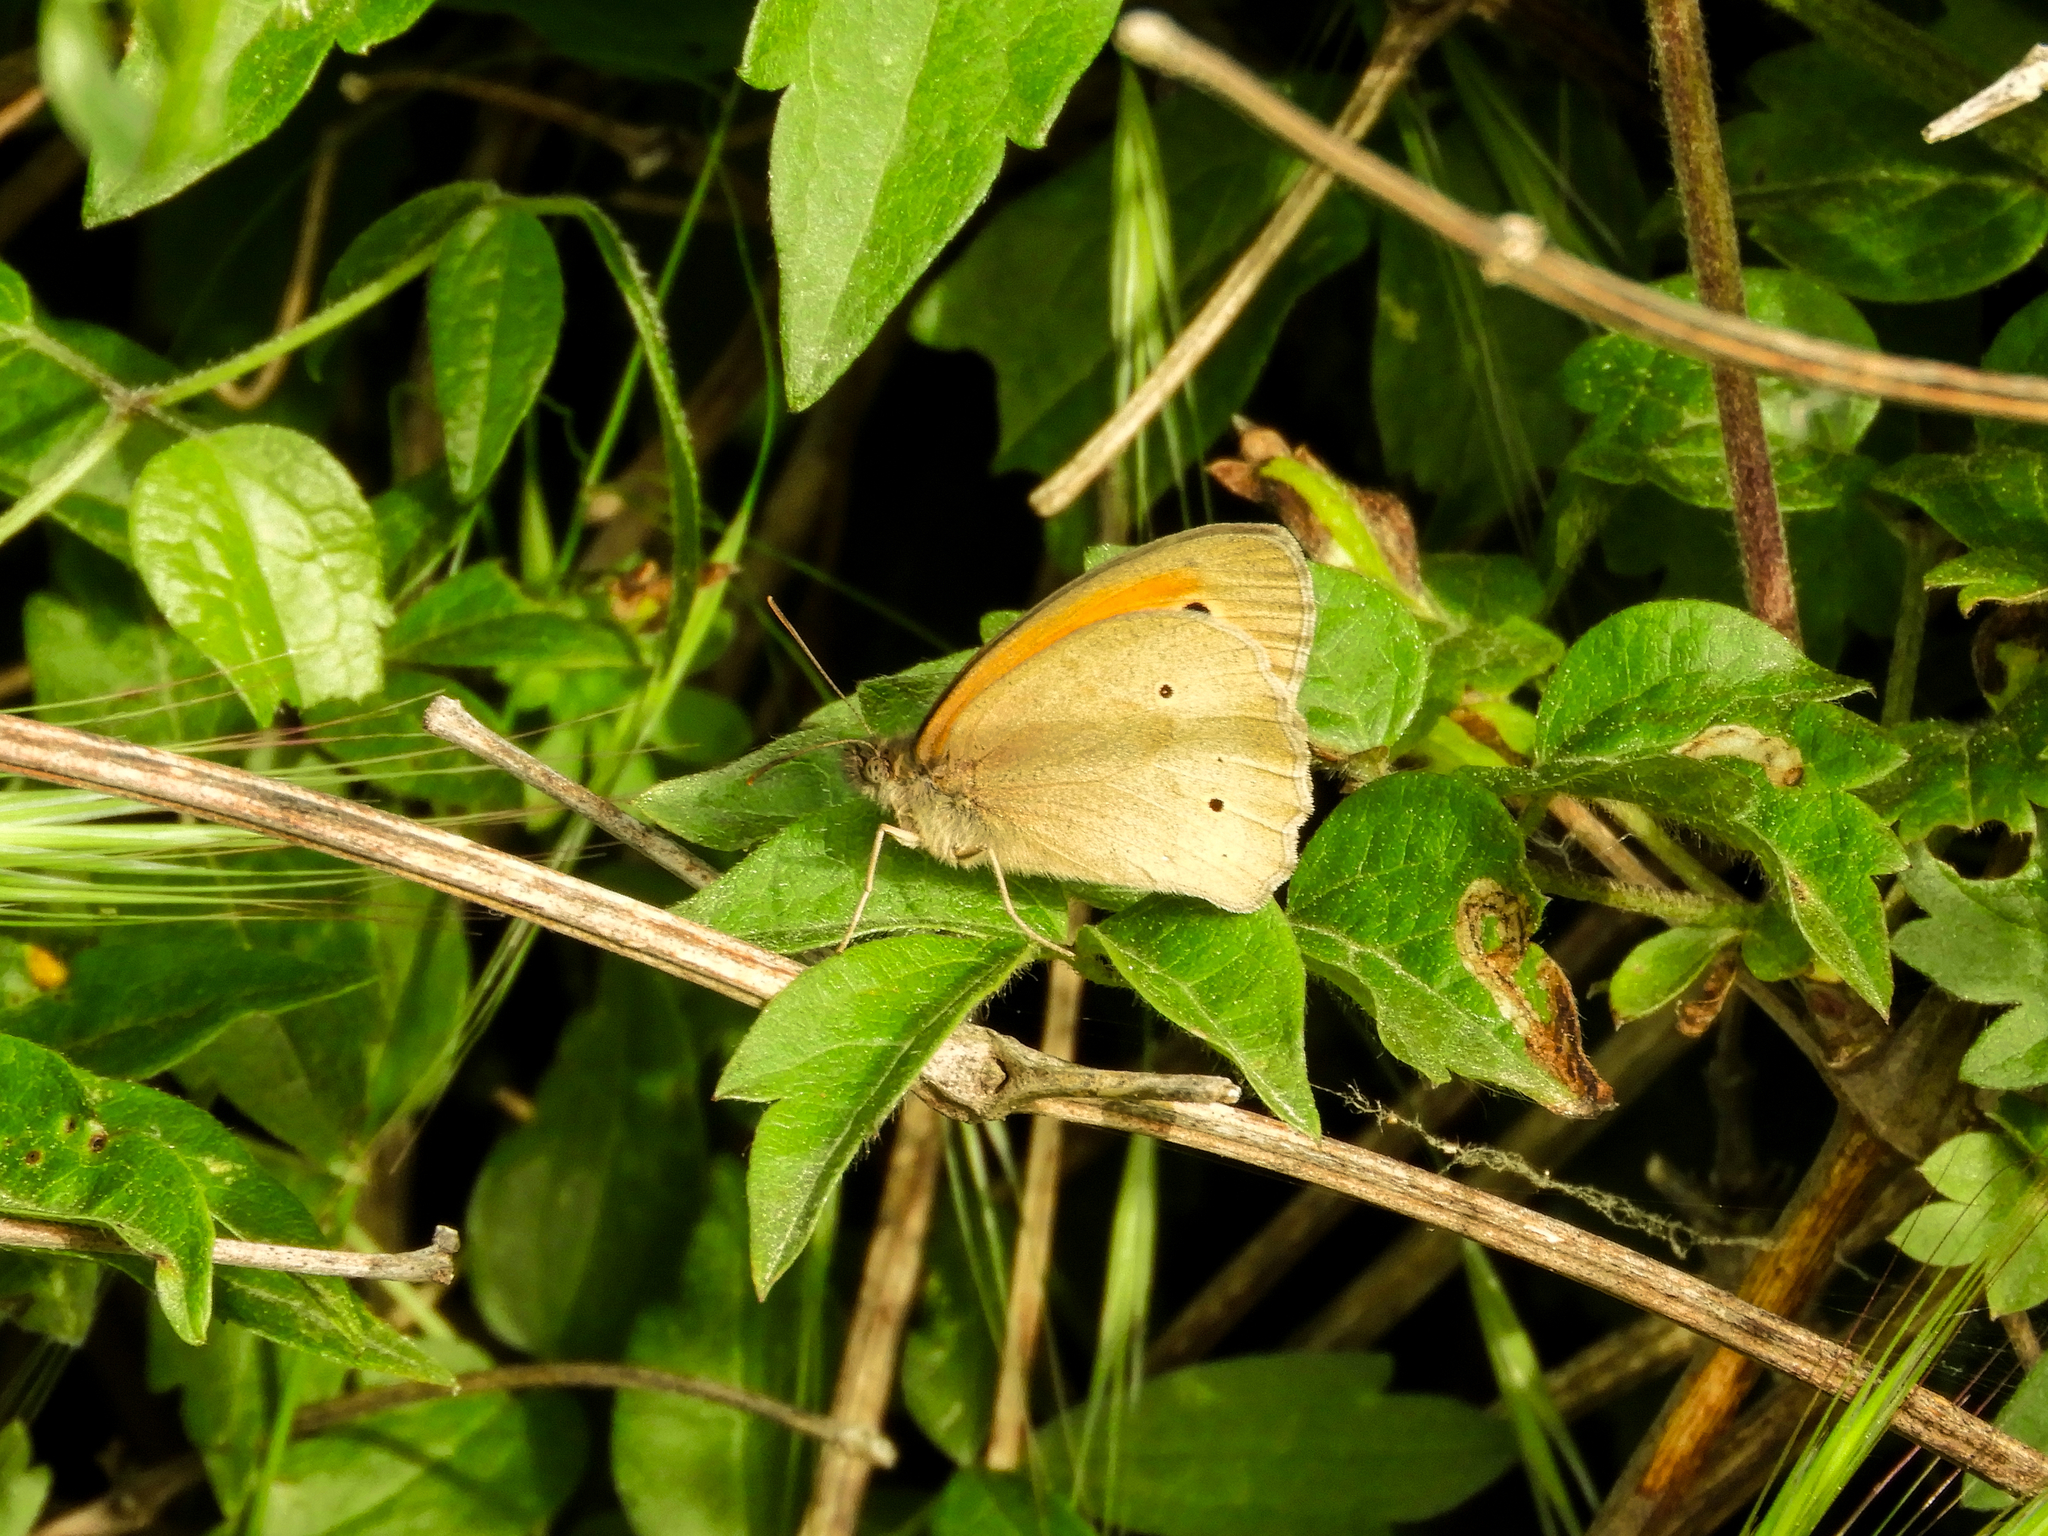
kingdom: Animalia
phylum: Arthropoda
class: Insecta
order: Lepidoptera
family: Nymphalidae
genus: Maniola
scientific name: Maniola jurtina
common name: Meadow brown
